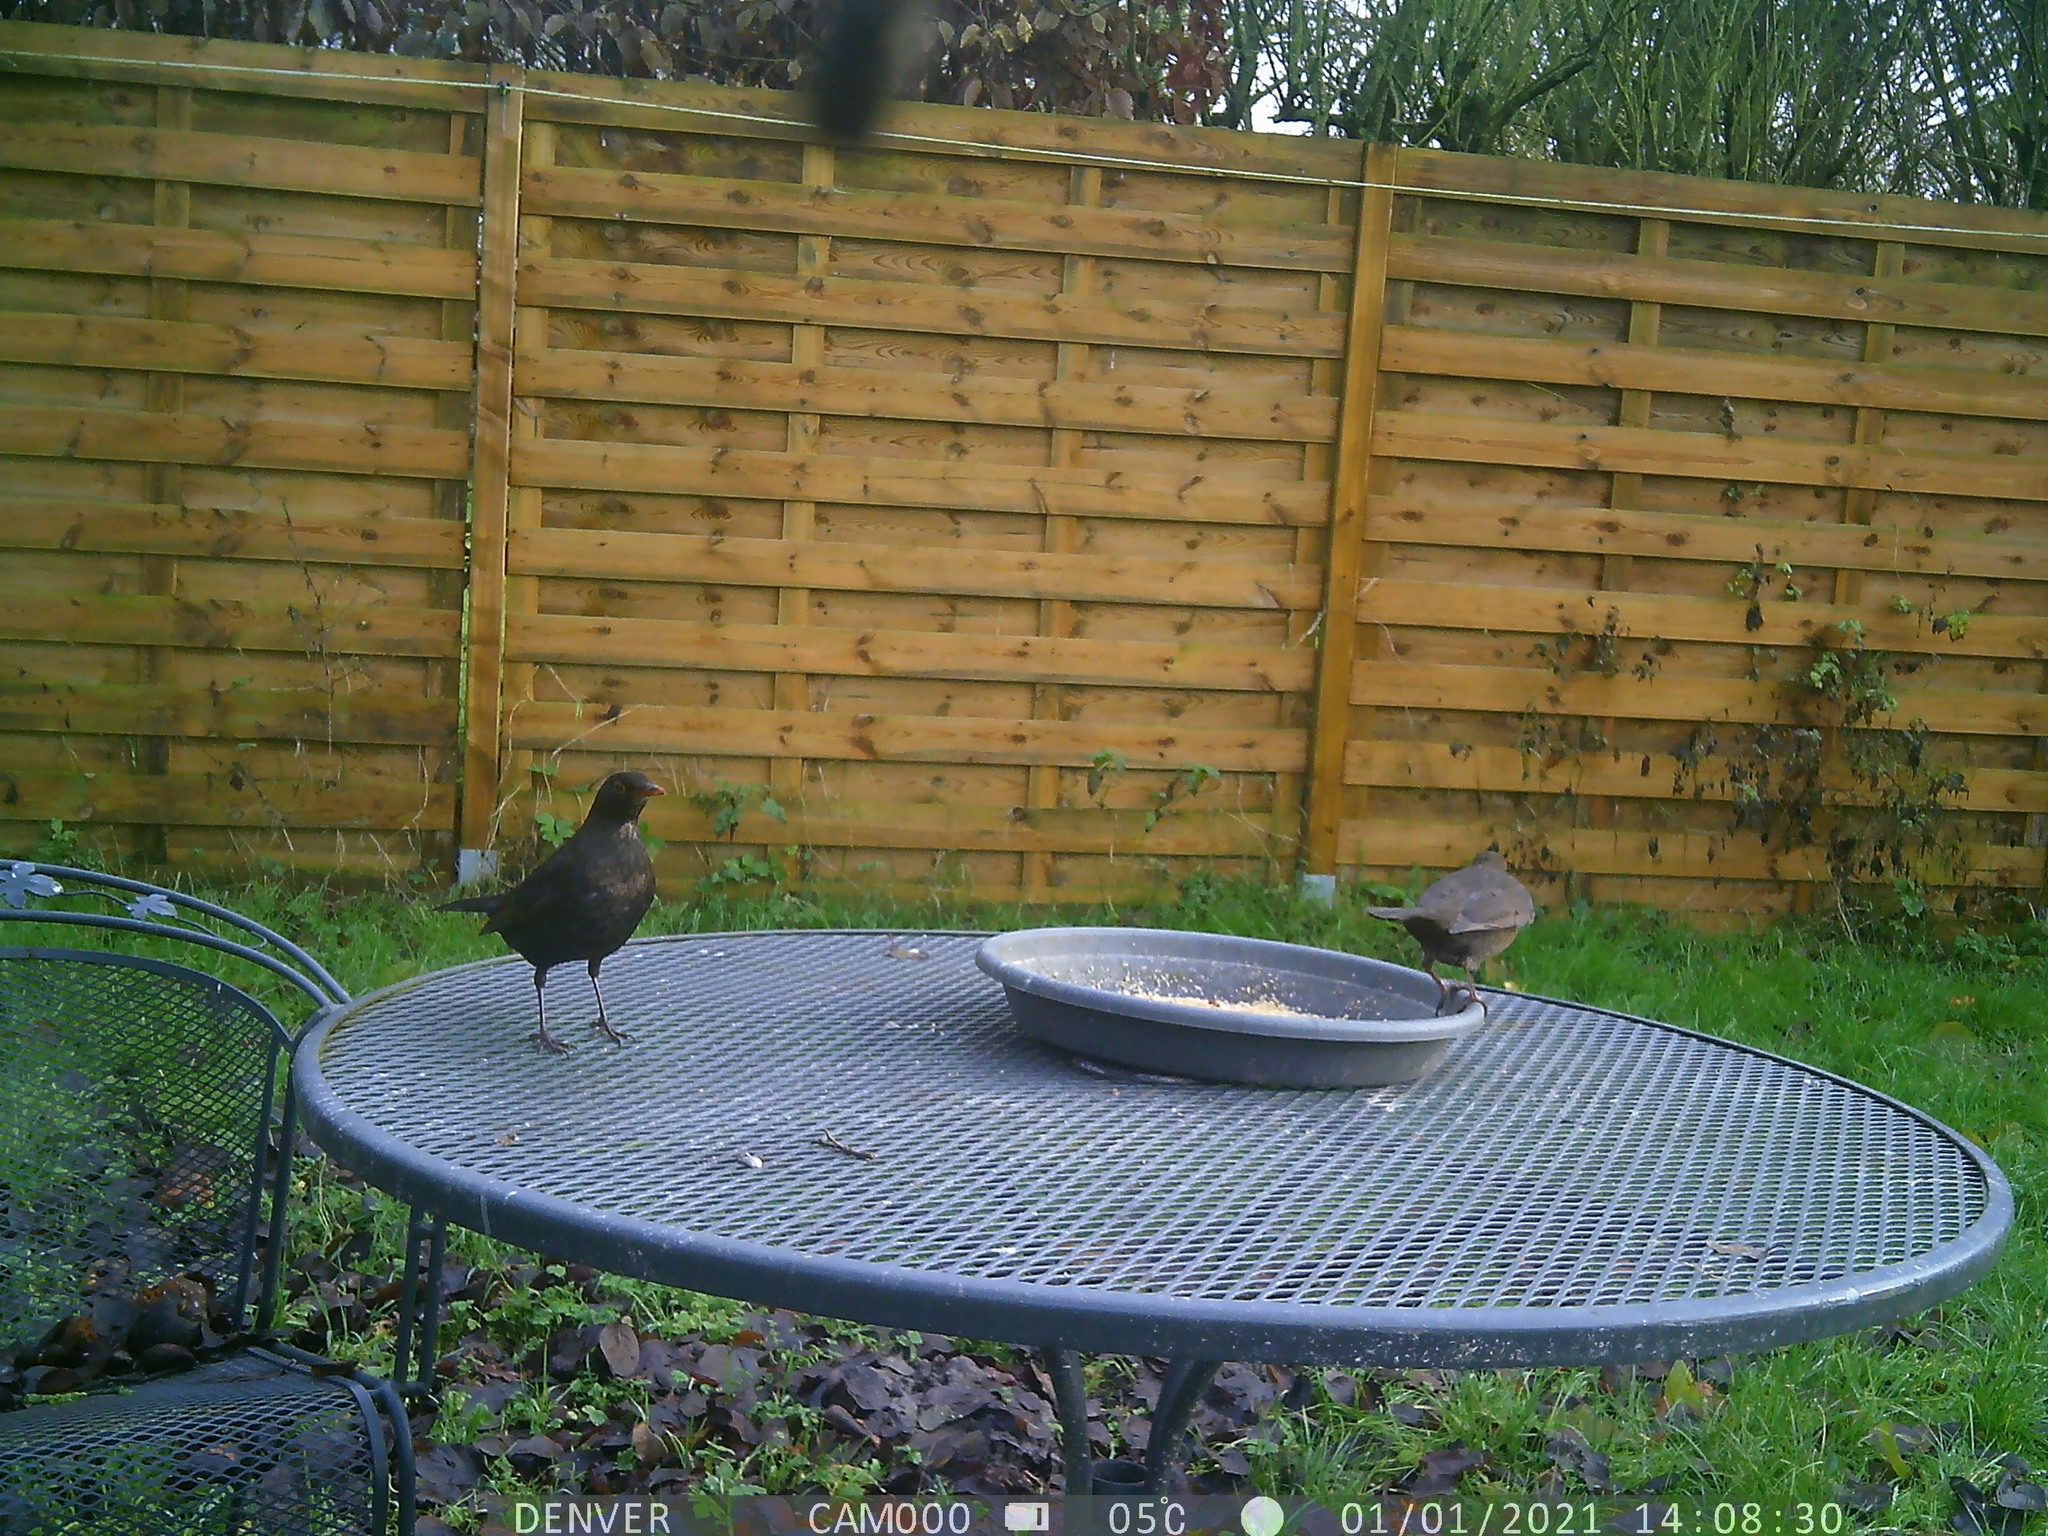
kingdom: Animalia
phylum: Chordata
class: Aves
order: Passeriformes
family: Turdidae
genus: Turdus
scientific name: Turdus merula
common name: Common blackbird
